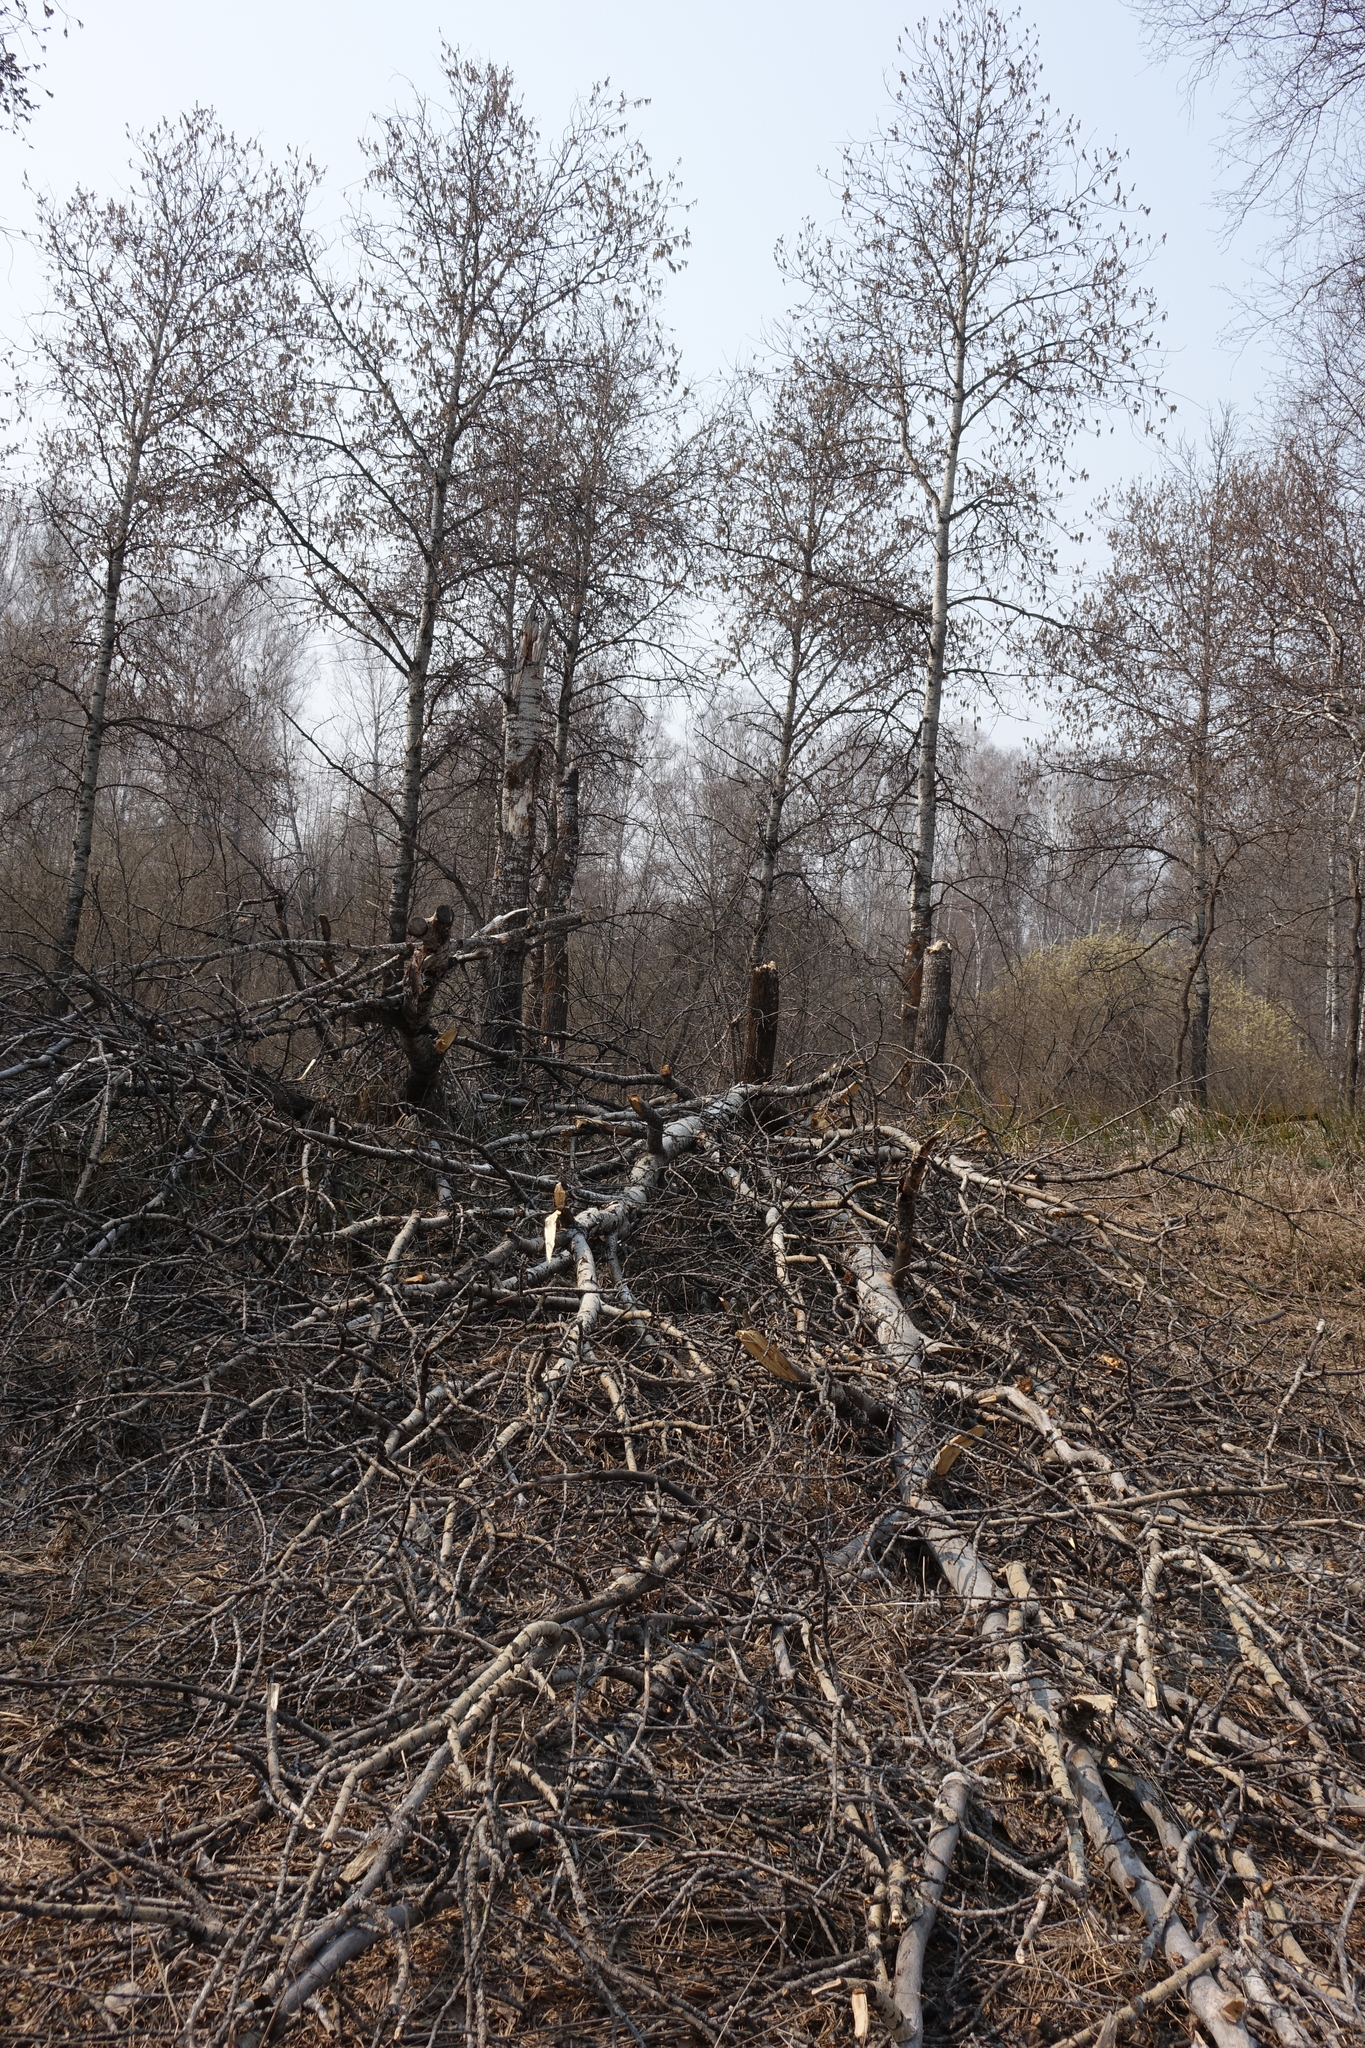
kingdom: Plantae
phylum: Tracheophyta
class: Magnoliopsida
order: Malpighiales
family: Salicaceae
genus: Populus
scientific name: Populus tremula
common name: European aspen
